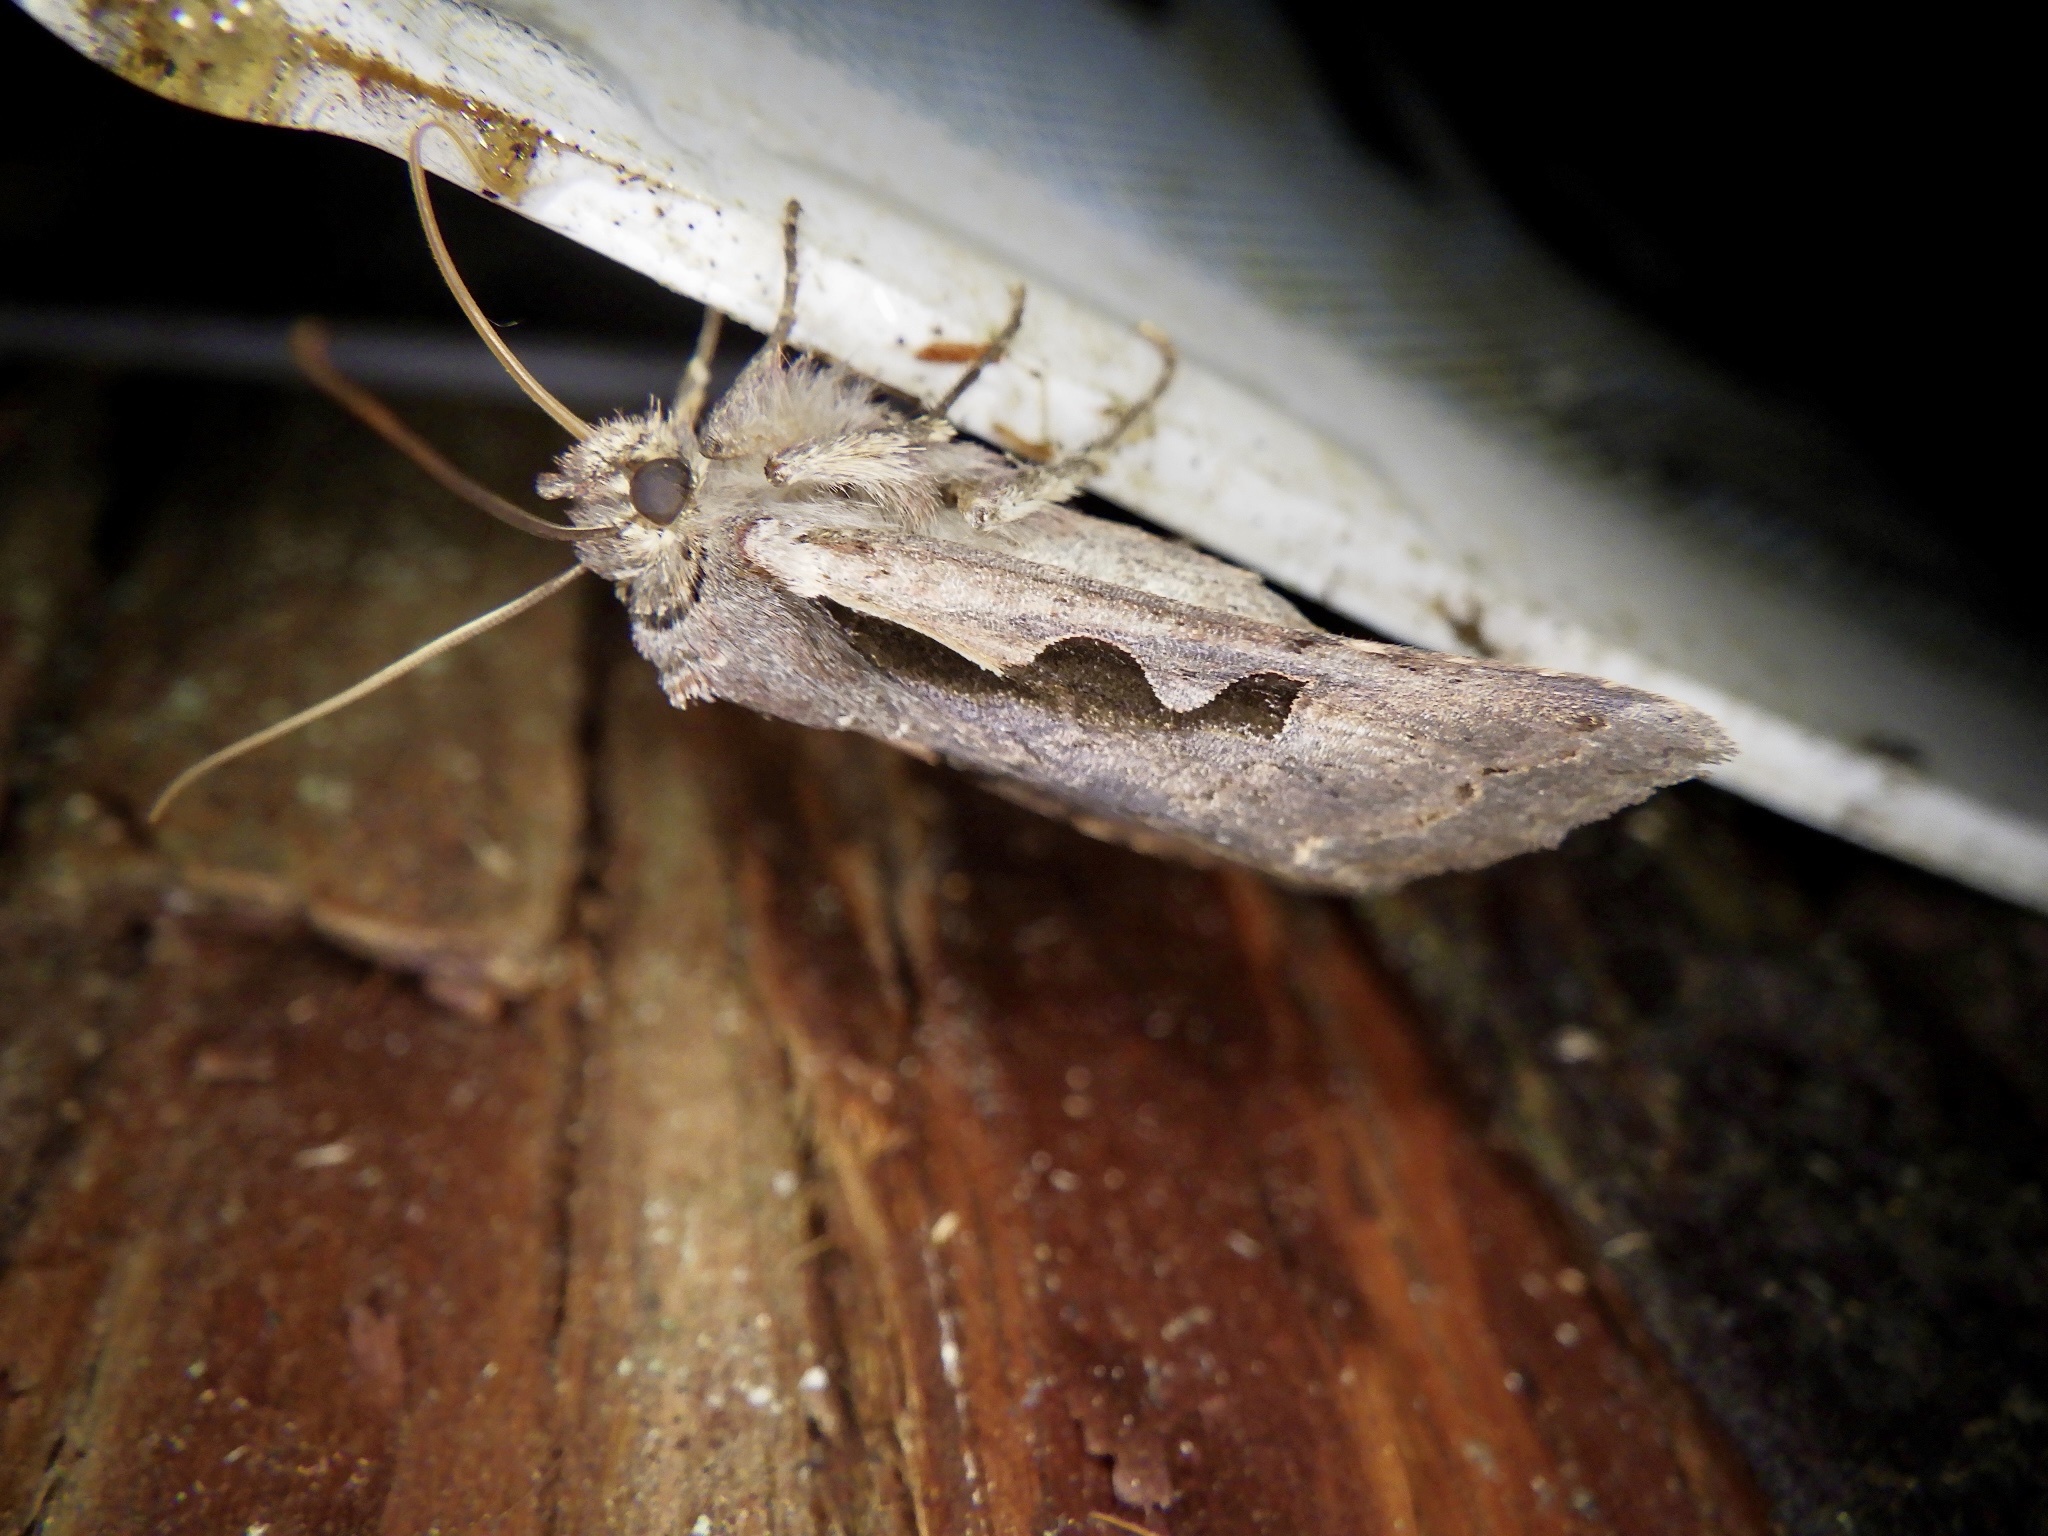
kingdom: Animalia
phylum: Arthropoda
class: Insecta
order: Lepidoptera
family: Noctuidae
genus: Sugitania
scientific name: Sugitania lepida
